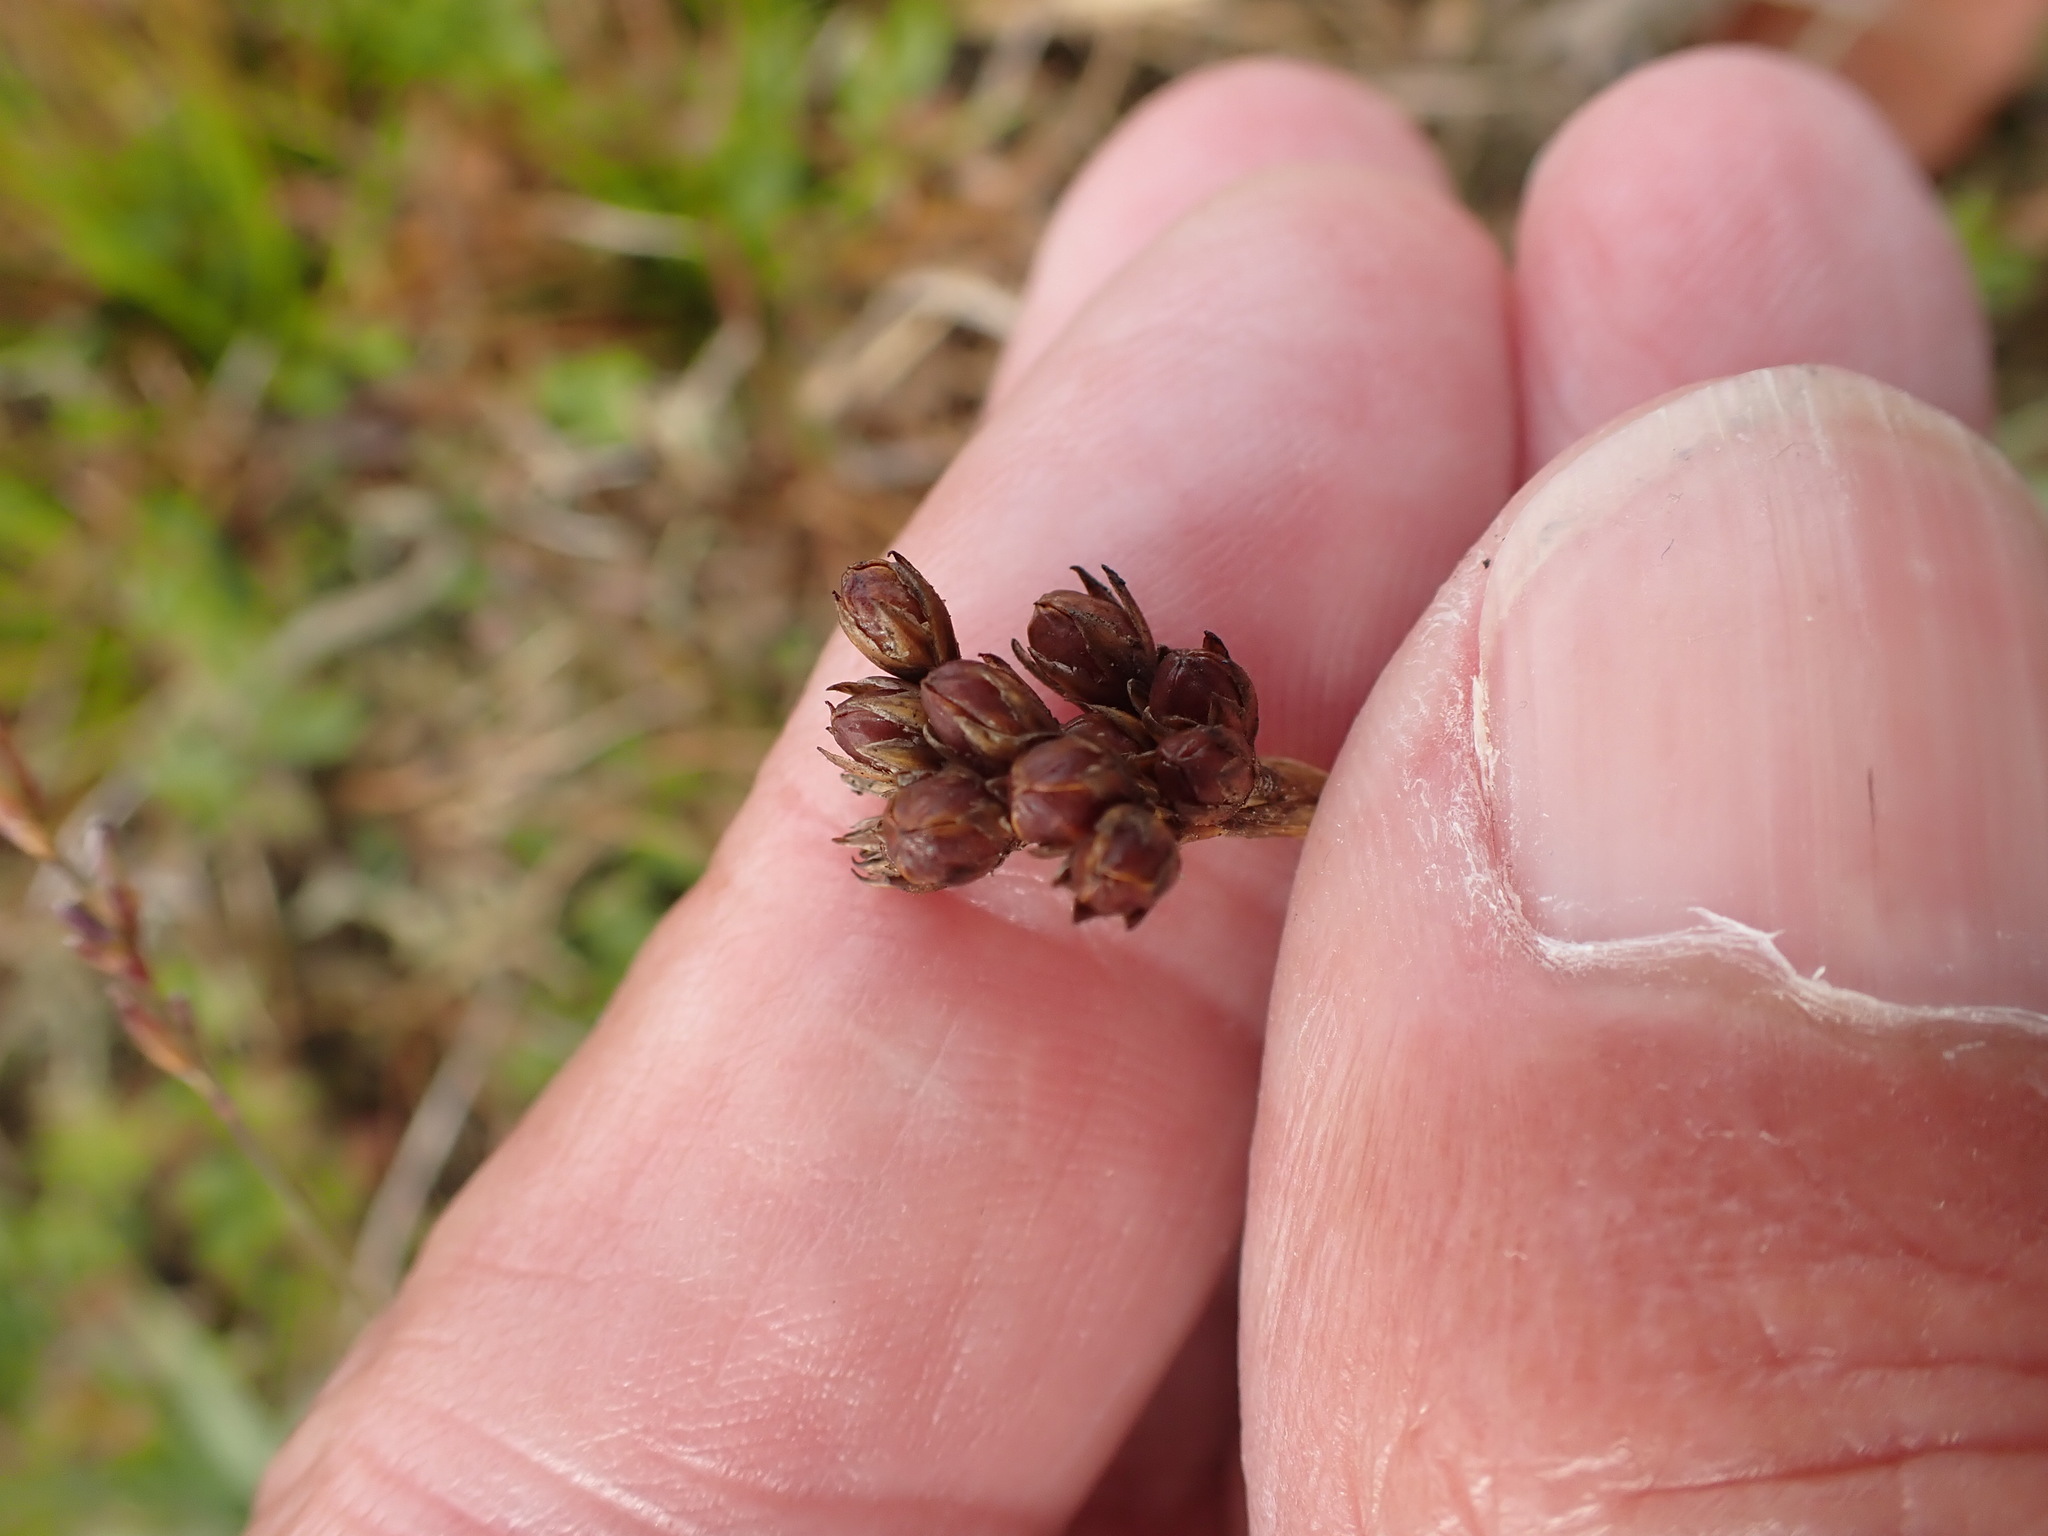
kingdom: Plantae
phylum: Tracheophyta
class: Liliopsida
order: Poales
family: Juncaceae
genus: Juncus
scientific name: Juncus squarrosus
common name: Heath rush
